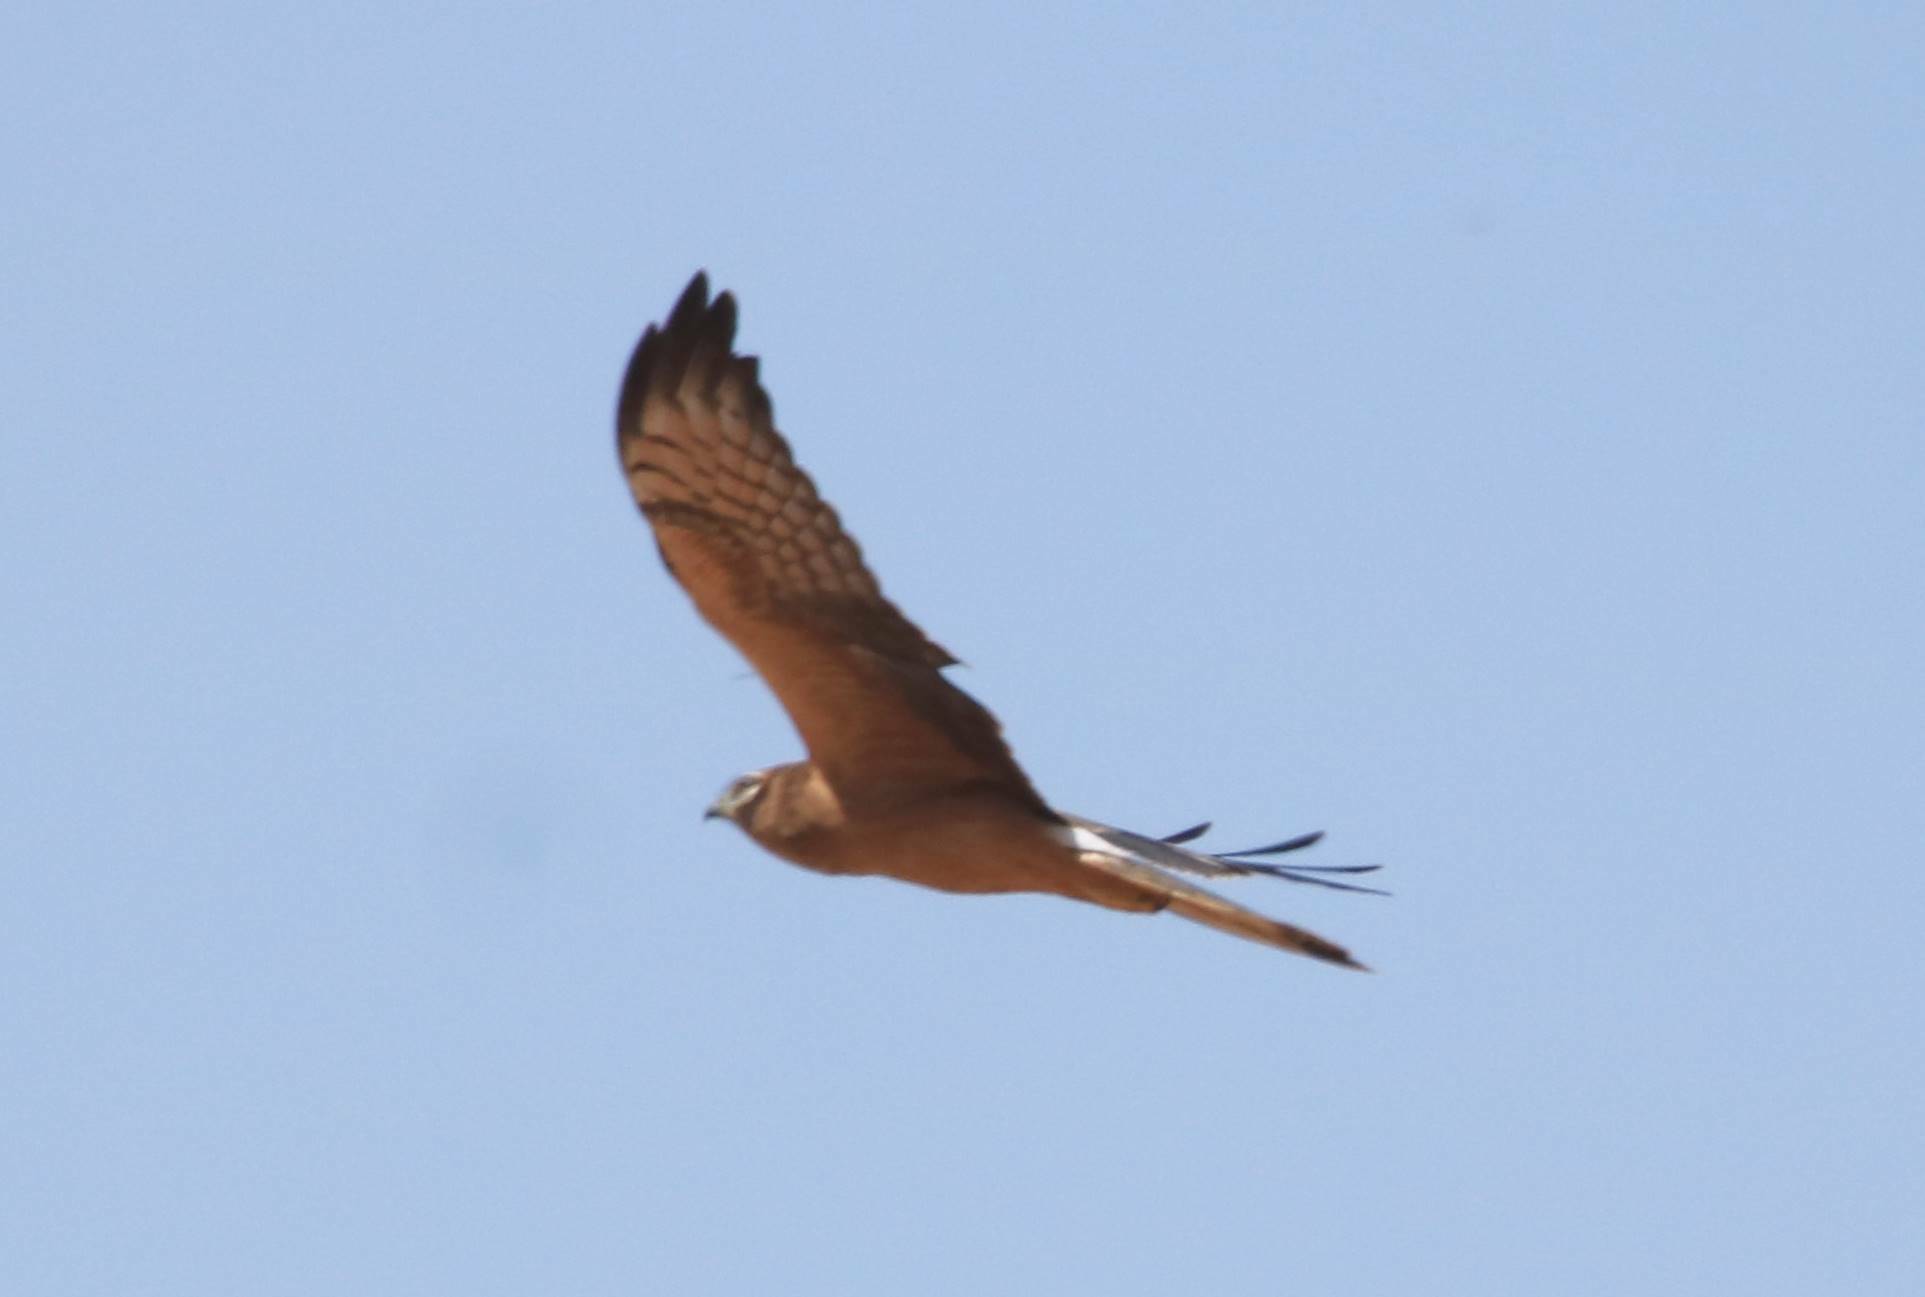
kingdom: Animalia
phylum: Chordata
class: Aves
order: Accipitriformes
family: Accipitridae
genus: Circus
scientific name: Circus pygargus
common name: Montagu's harrier
